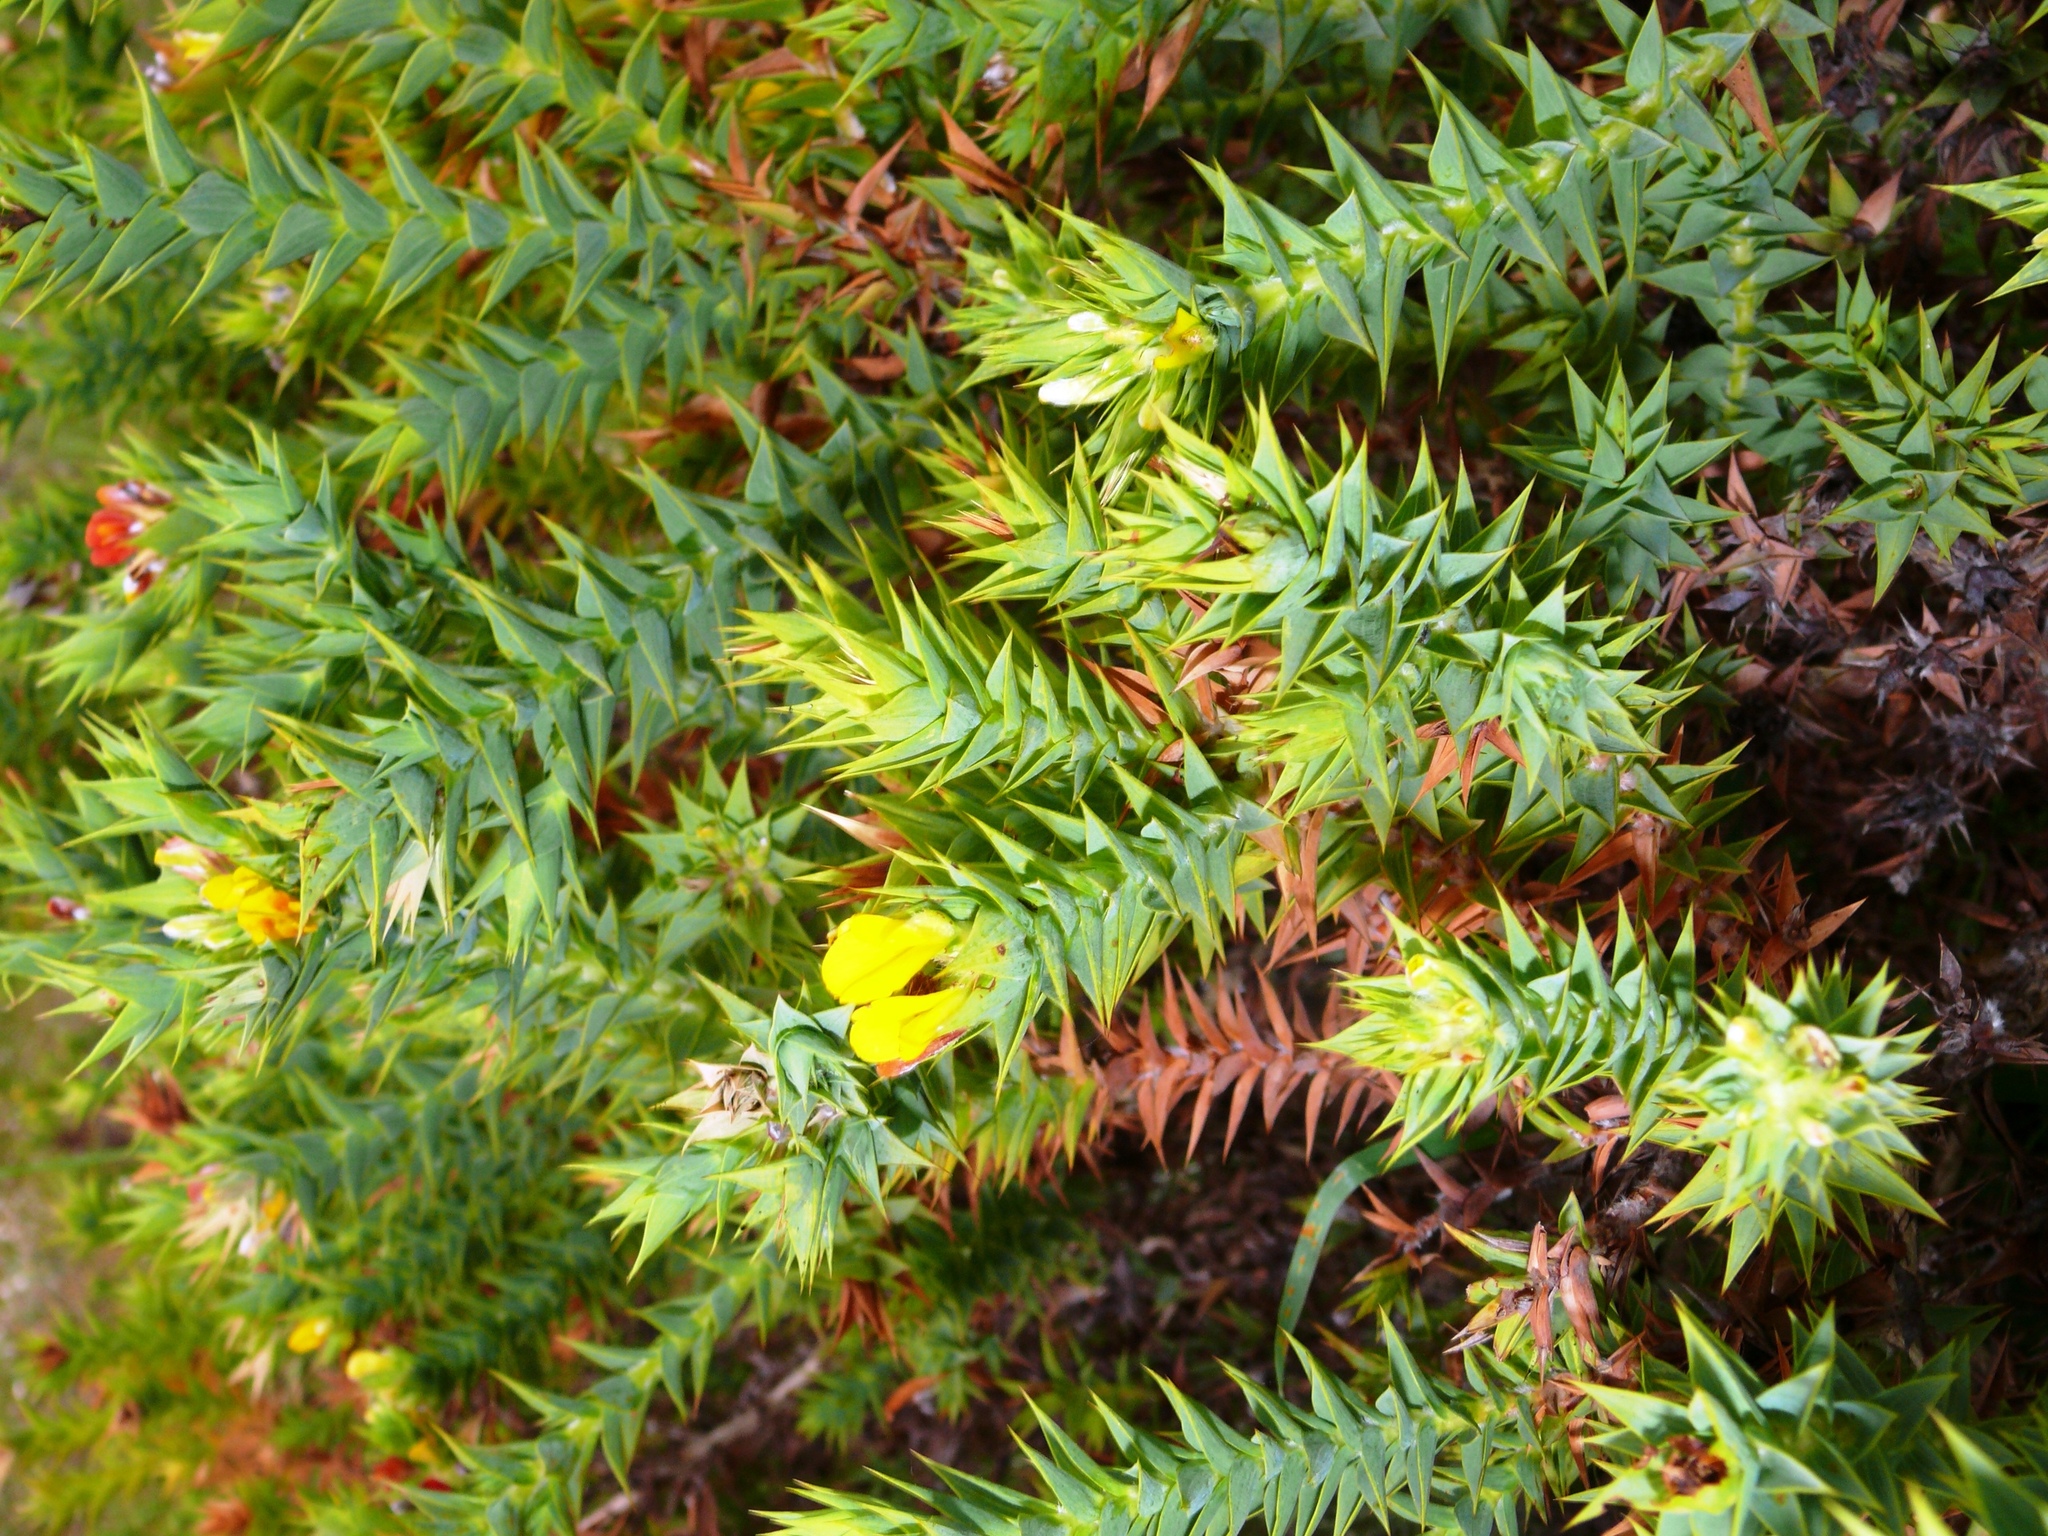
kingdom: Plantae
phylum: Tracheophyta
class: Magnoliopsida
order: Fabales
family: Fabaceae
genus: Aspalathus
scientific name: Aspalathus cordata
